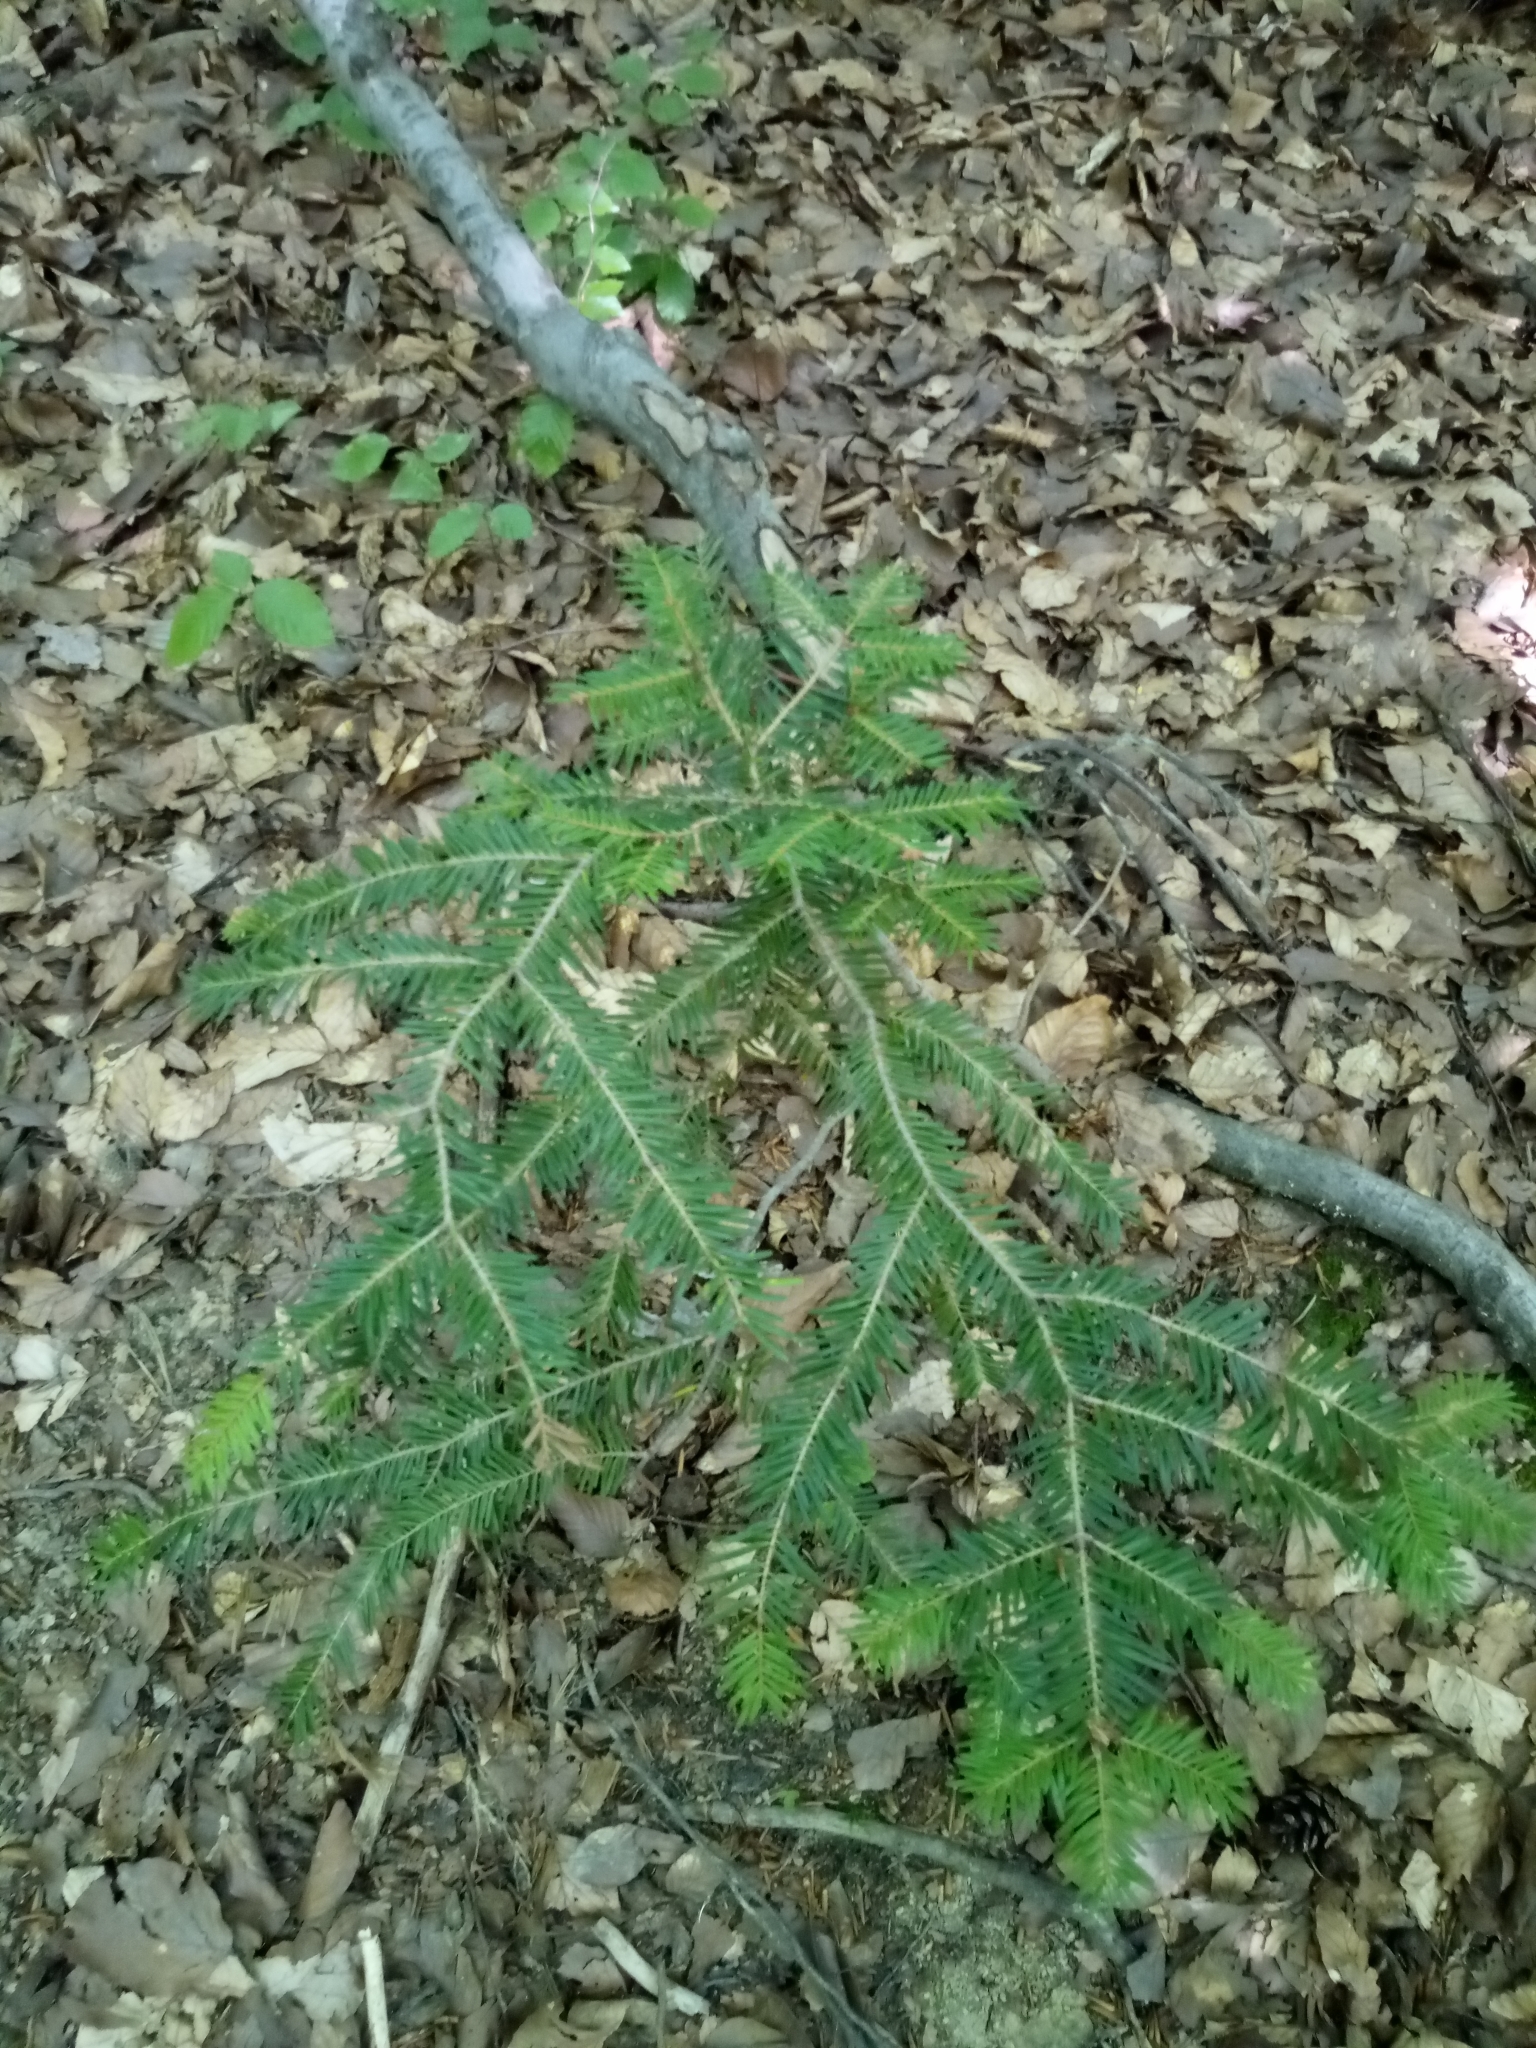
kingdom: Plantae
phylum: Tracheophyta
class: Pinopsida
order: Pinales
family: Pinaceae
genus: Abies
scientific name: Abies alba
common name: Silver fir
